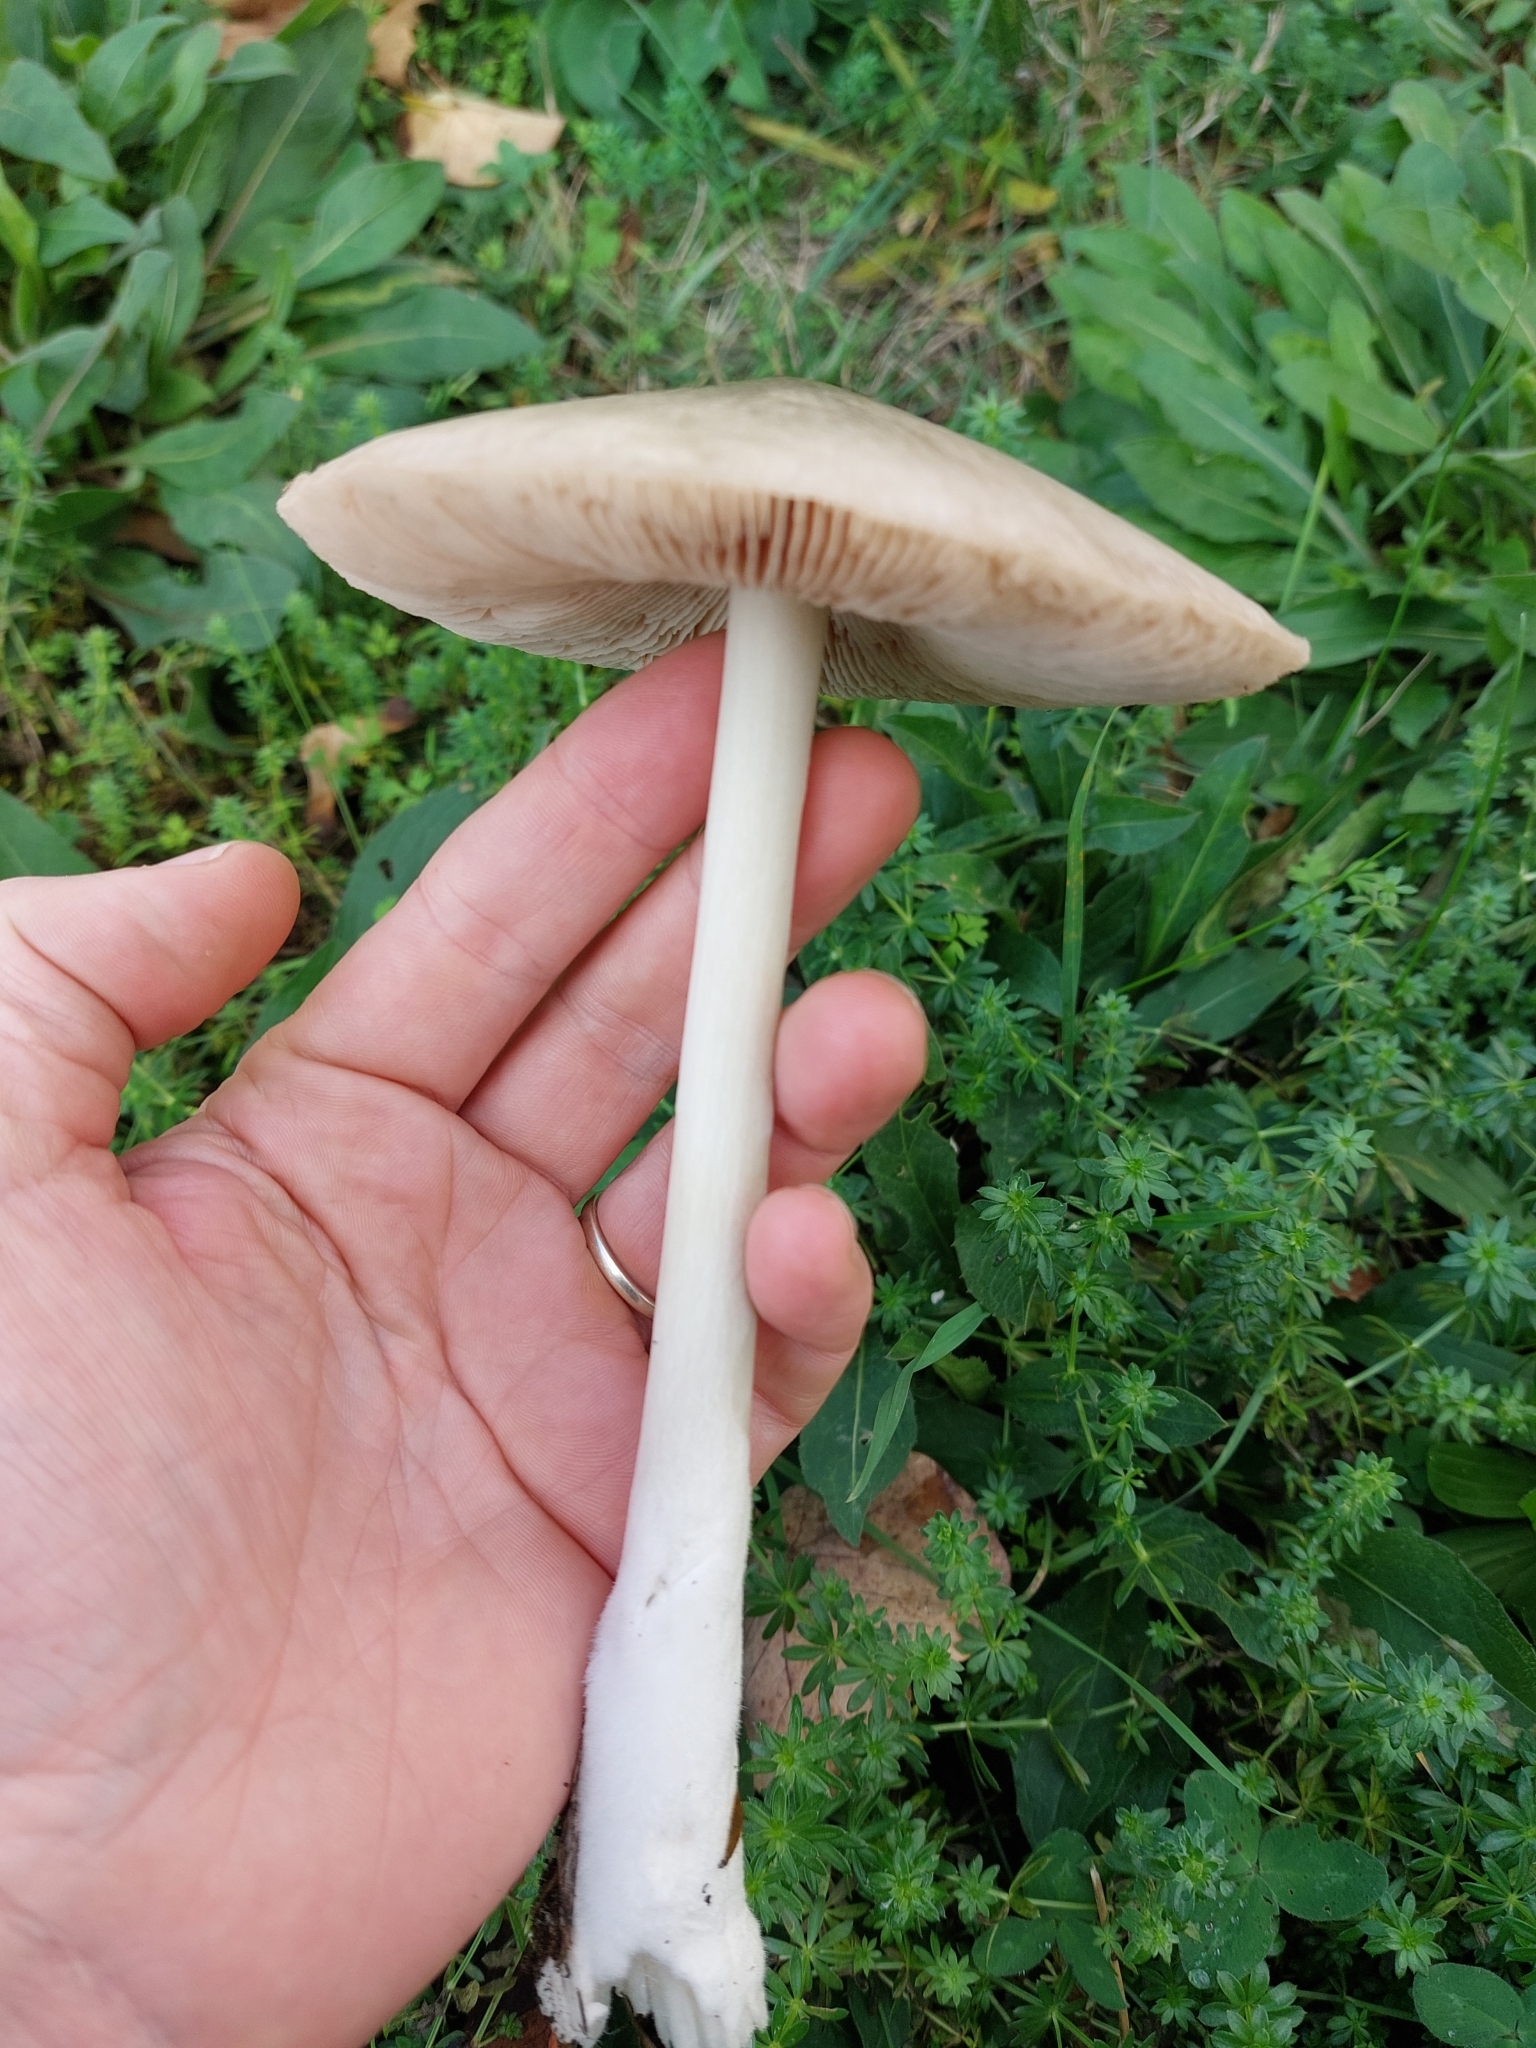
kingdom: Fungi
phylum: Basidiomycota
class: Agaricomycetes
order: Agaricales
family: Pluteaceae
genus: Volvopluteus
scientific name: Volvopluteus gloiocephalus
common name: Stubble rosegill
